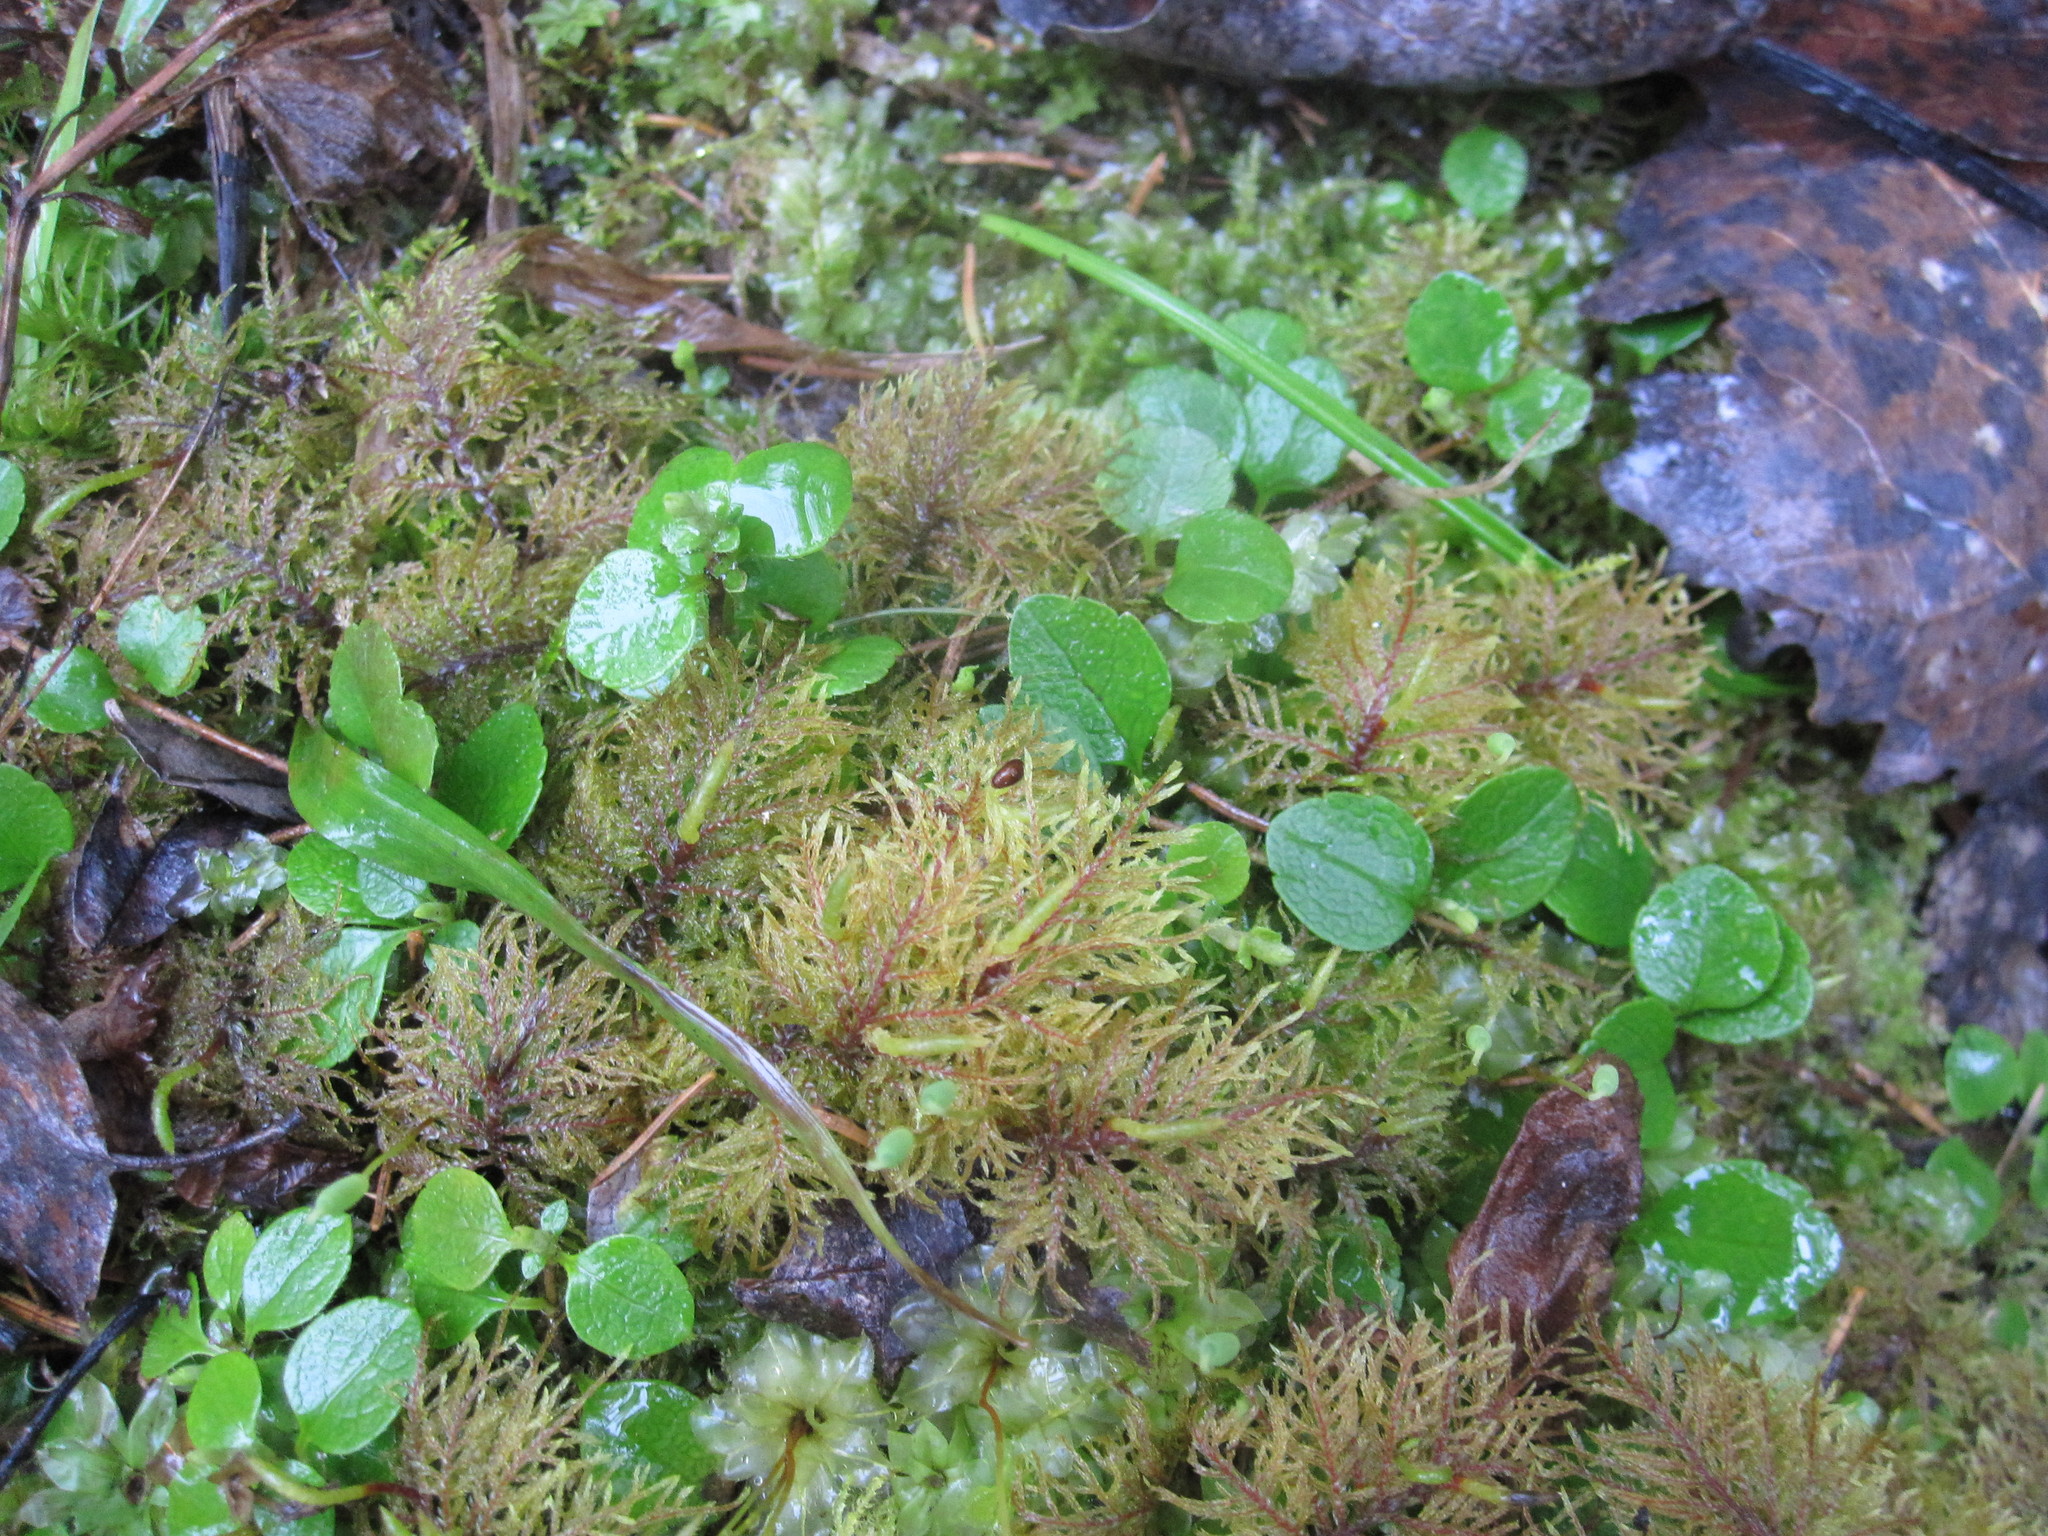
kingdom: Plantae
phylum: Tracheophyta
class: Magnoliopsida
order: Dipsacales
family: Caprifoliaceae
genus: Linnaea
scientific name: Linnaea borealis
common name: Twinflower
